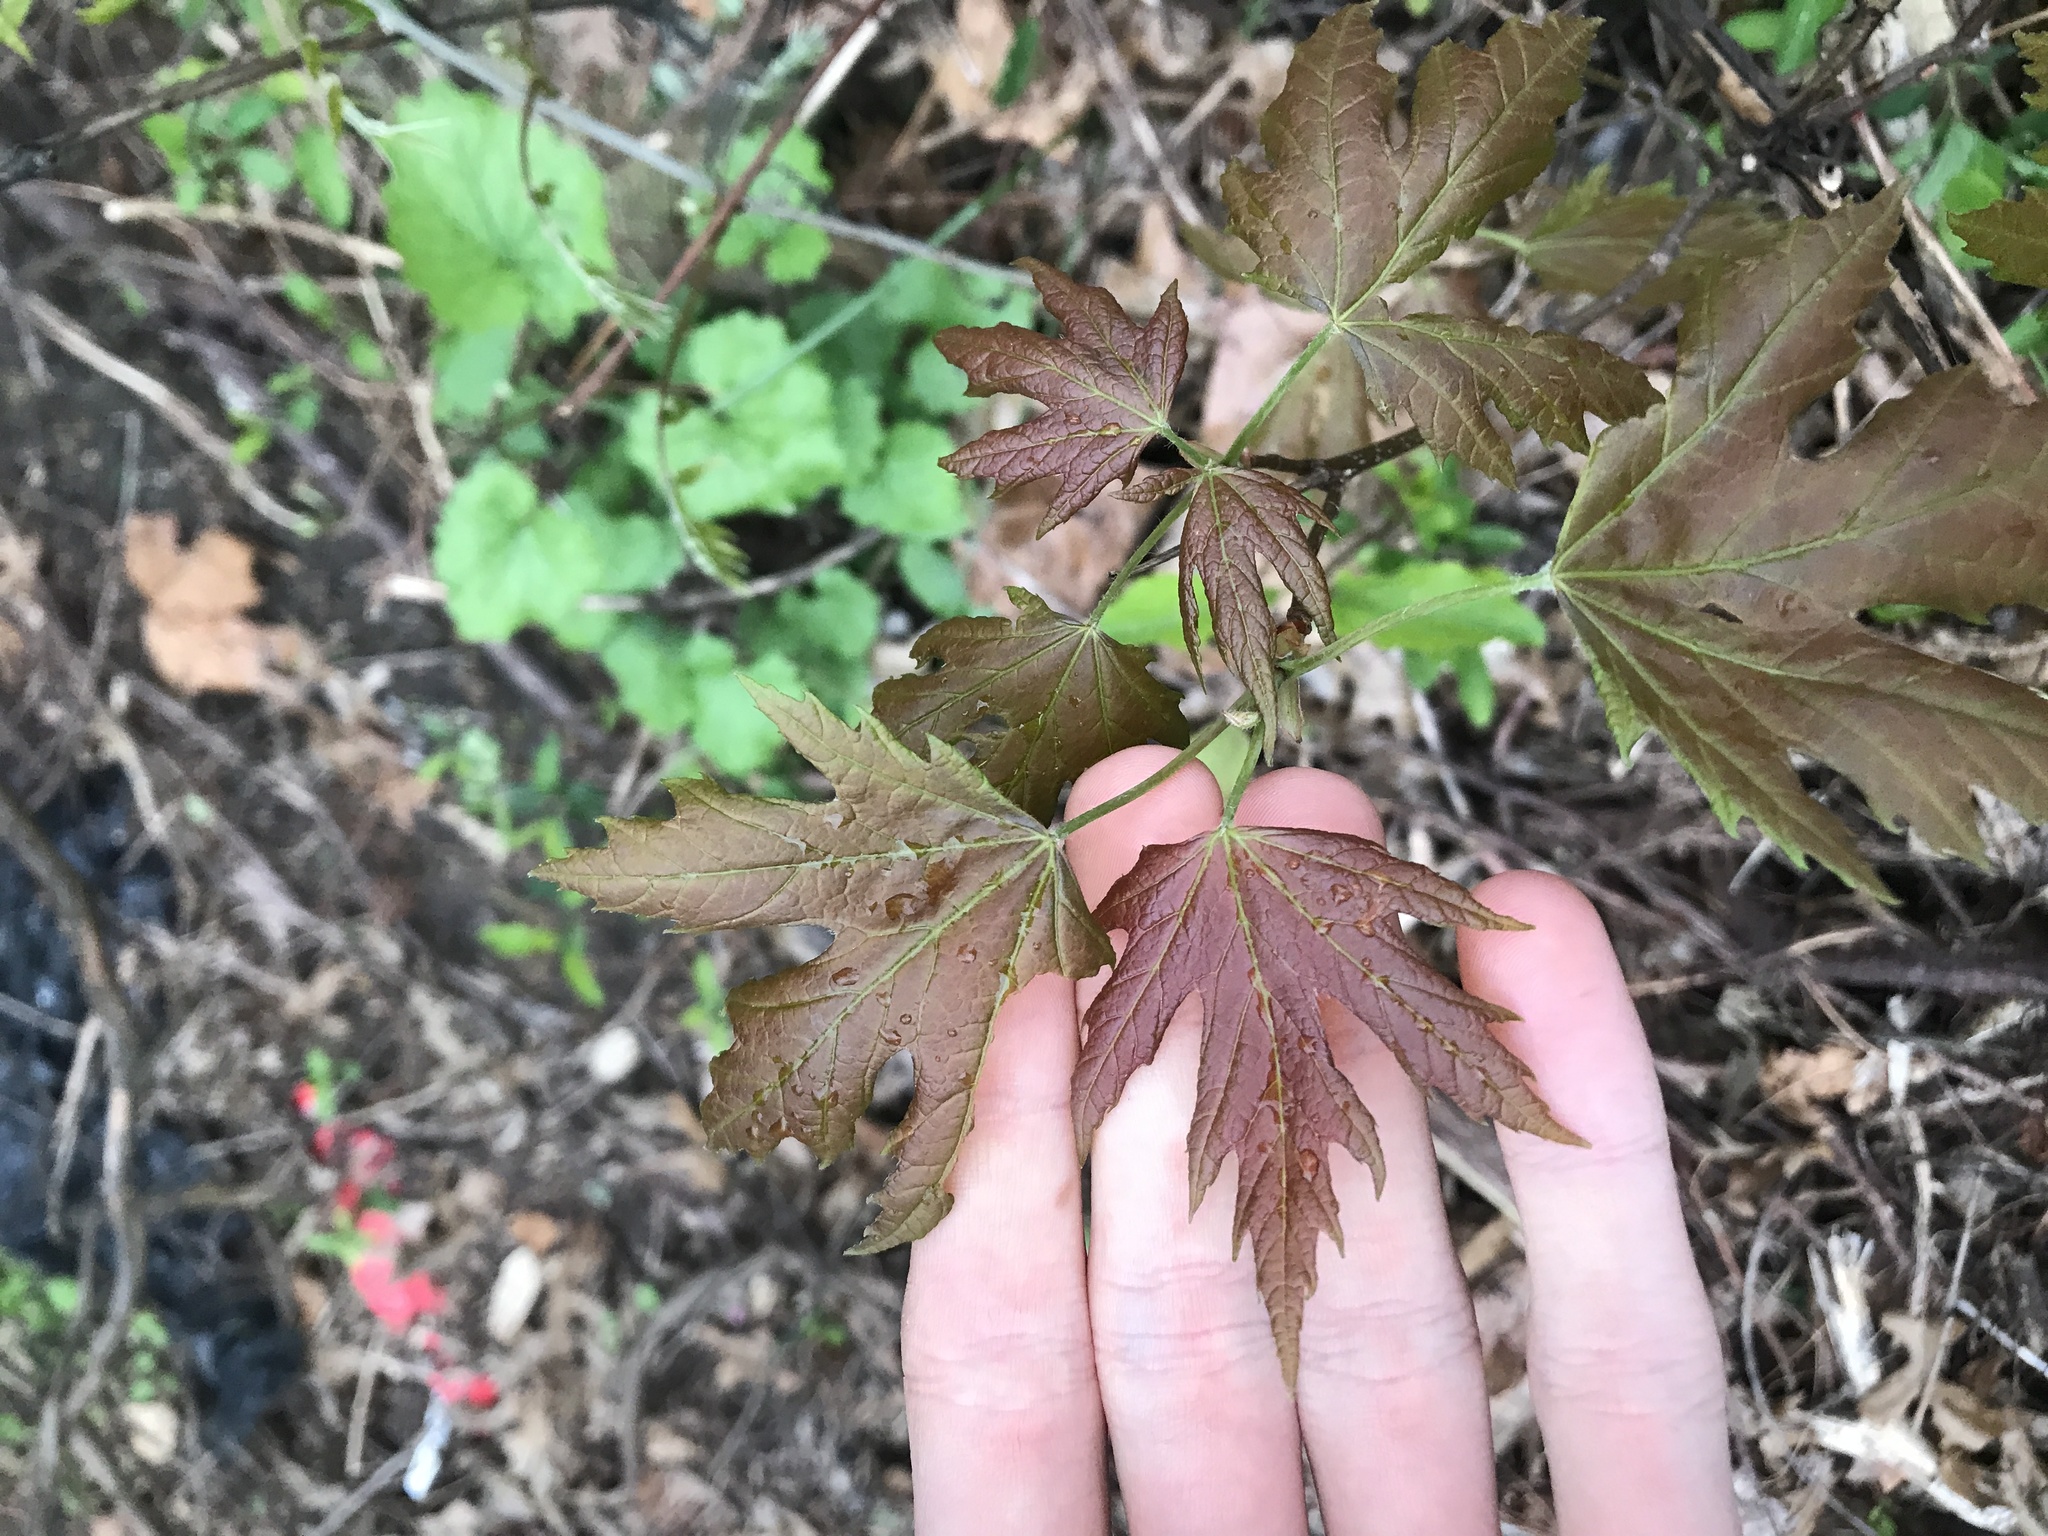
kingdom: Plantae
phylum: Tracheophyta
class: Magnoliopsida
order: Sapindales
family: Sapindaceae
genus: Acer
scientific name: Acer saccharinum
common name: Silver maple
